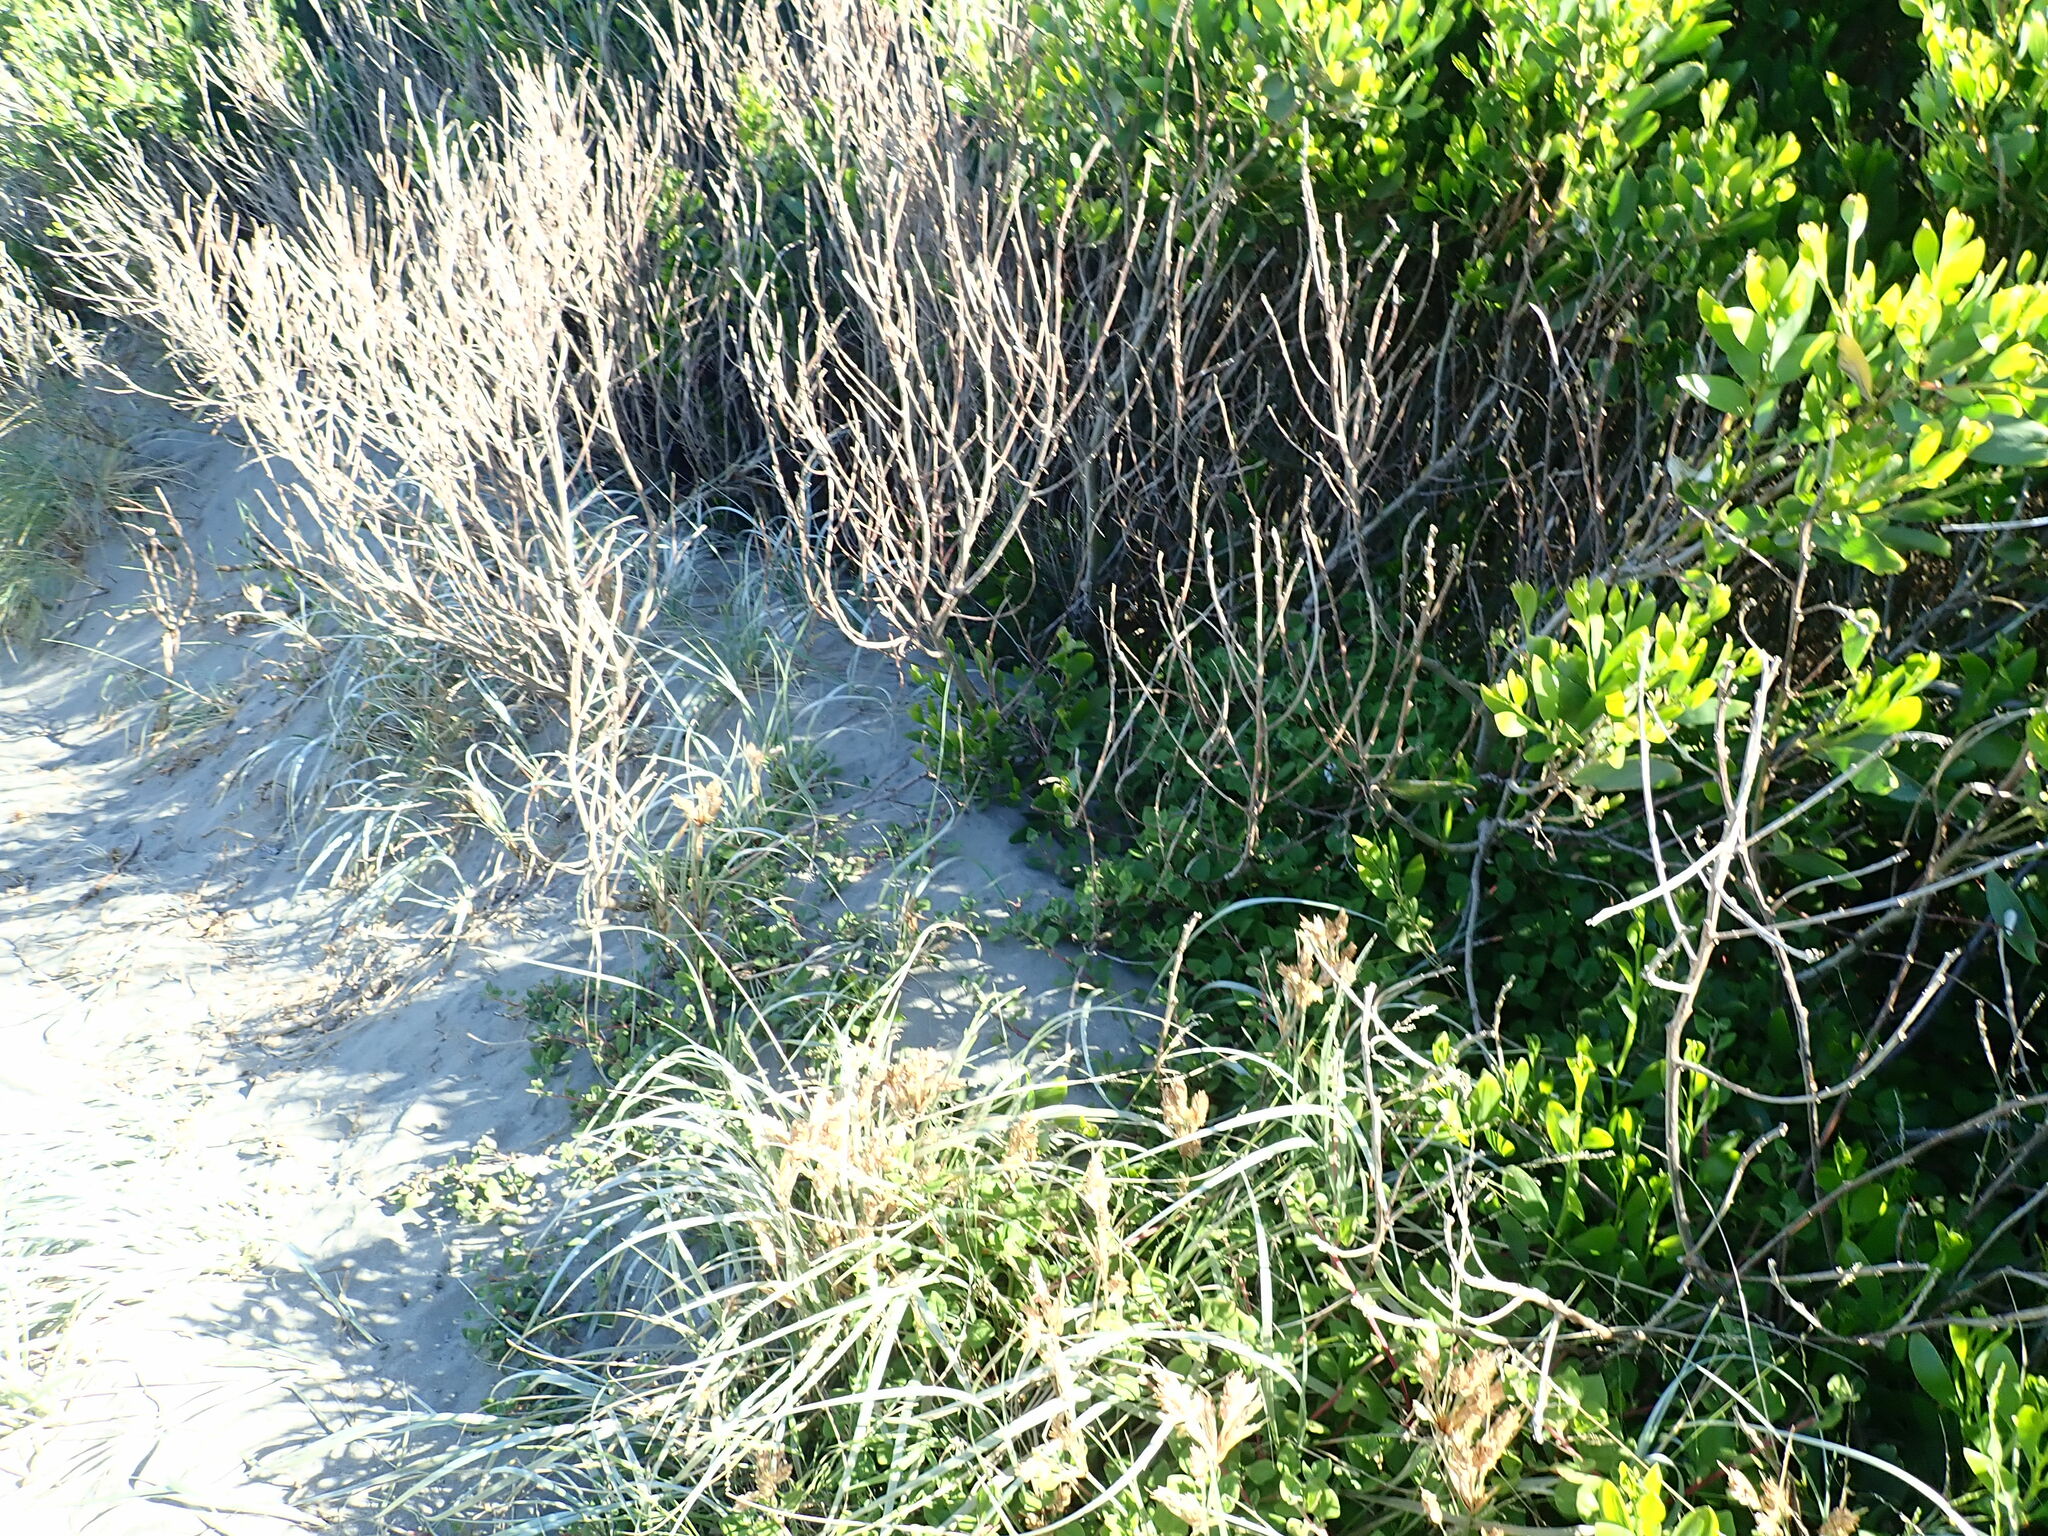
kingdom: Plantae
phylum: Tracheophyta
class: Magnoliopsida
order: Caryophyllales
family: Aizoaceae
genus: Tetragonia
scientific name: Tetragonia implexicoma
